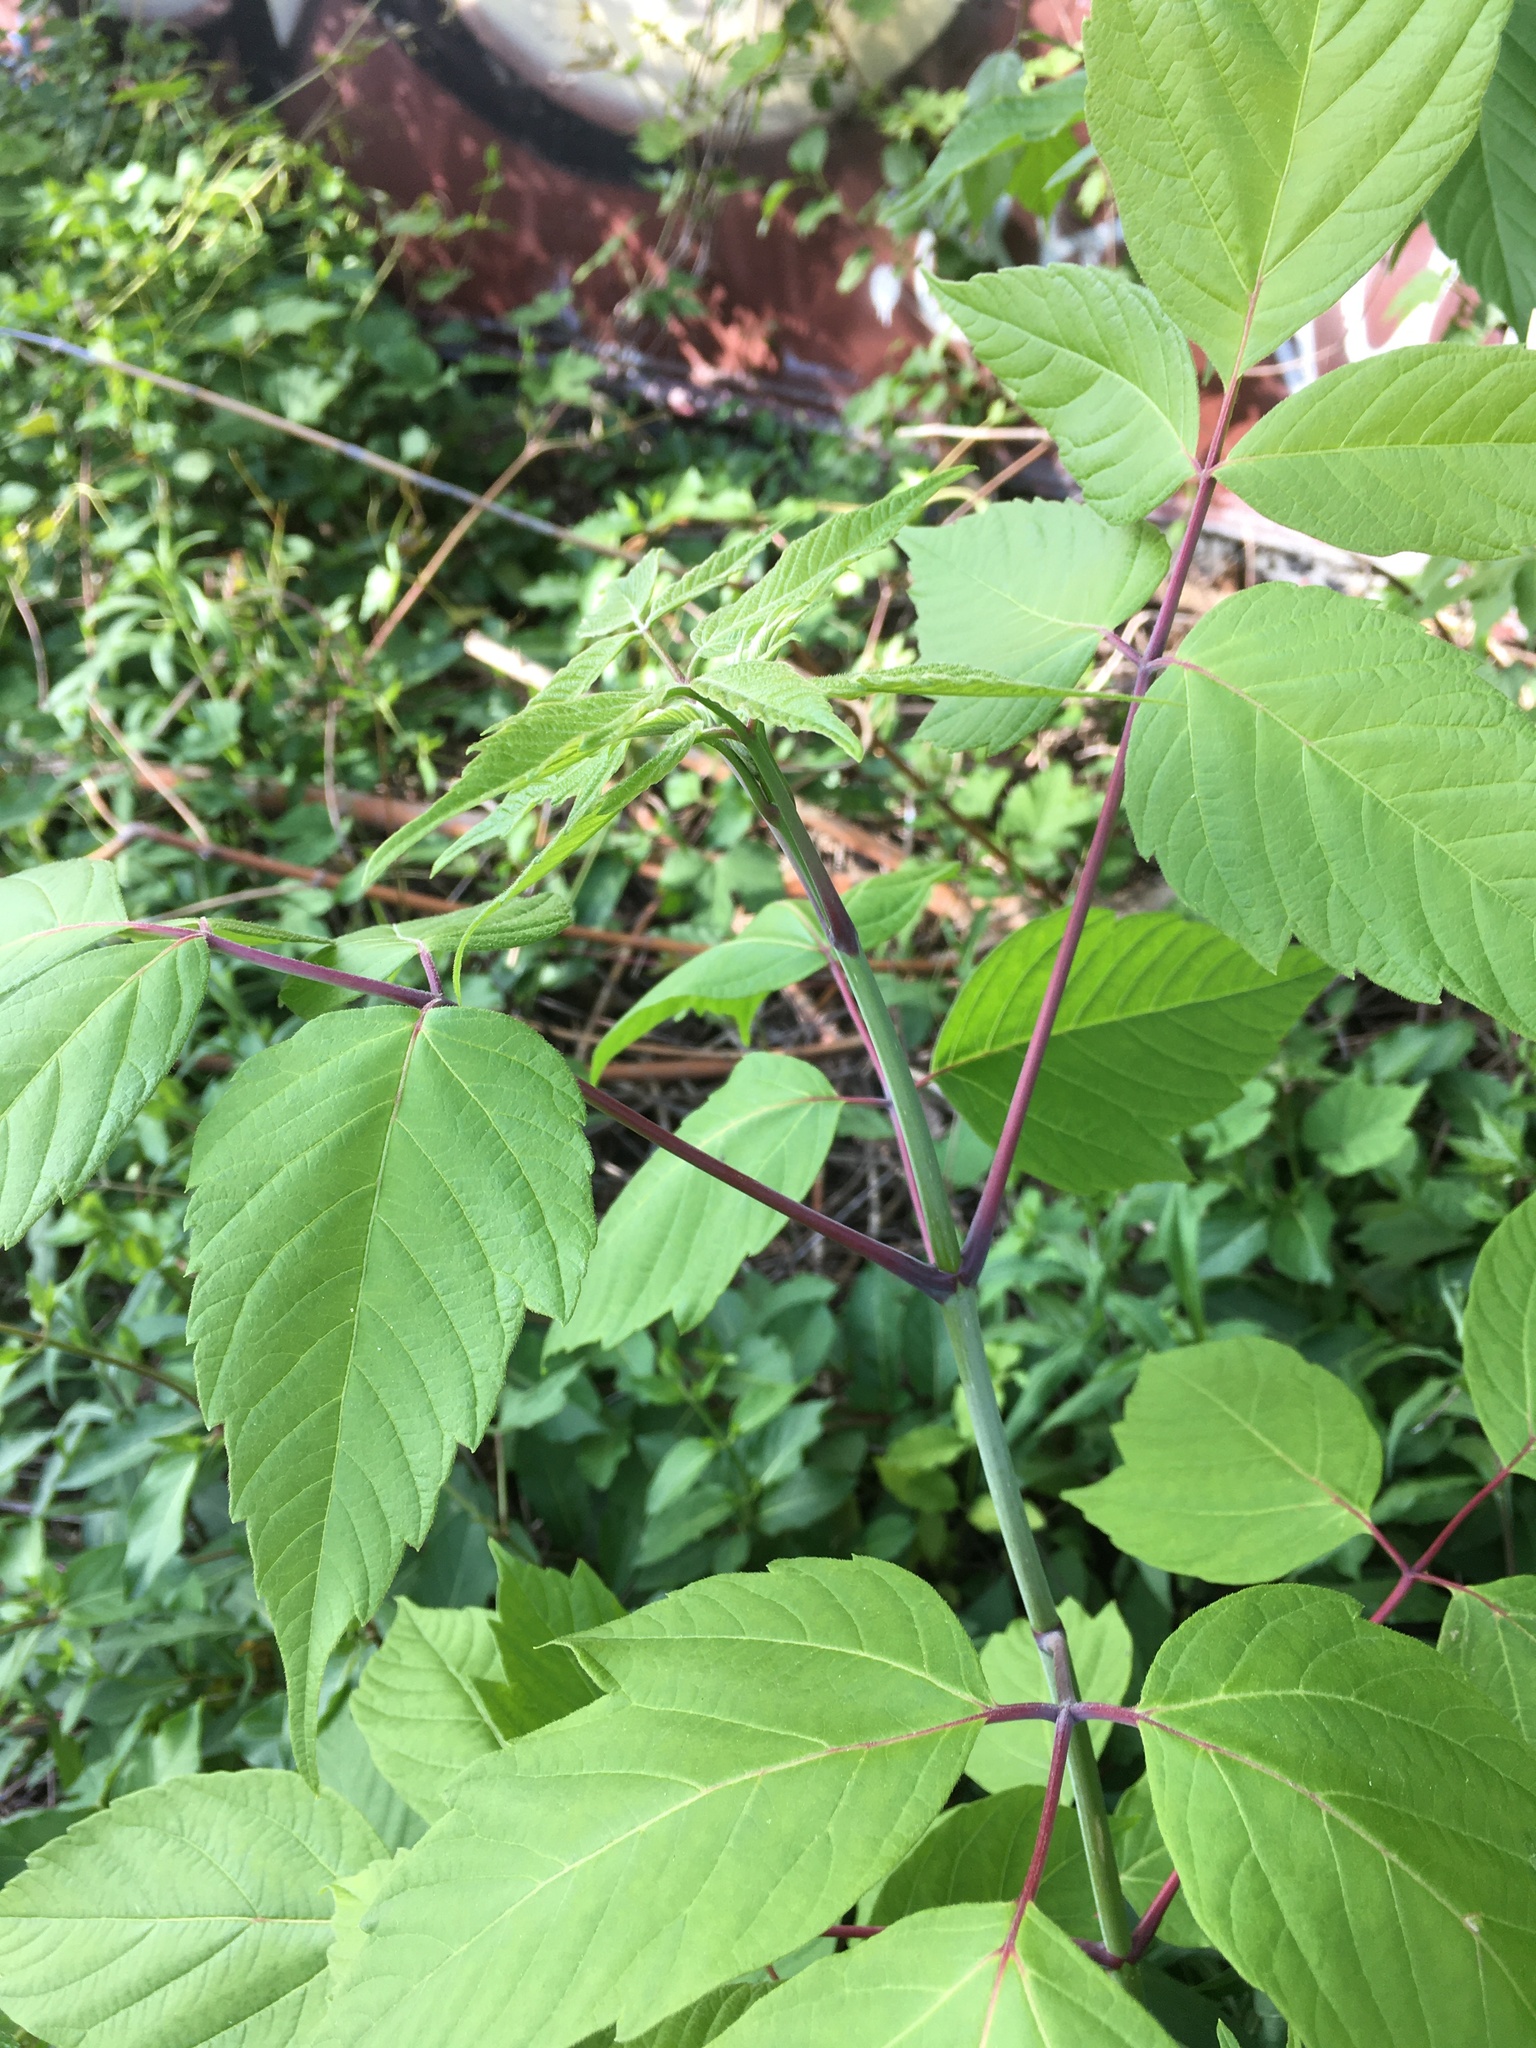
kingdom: Plantae
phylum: Tracheophyta
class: Magnoliopsida
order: Sapindales
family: Sapindaceae
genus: Acer
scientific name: Acer negundo
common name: Ashleaf maple
